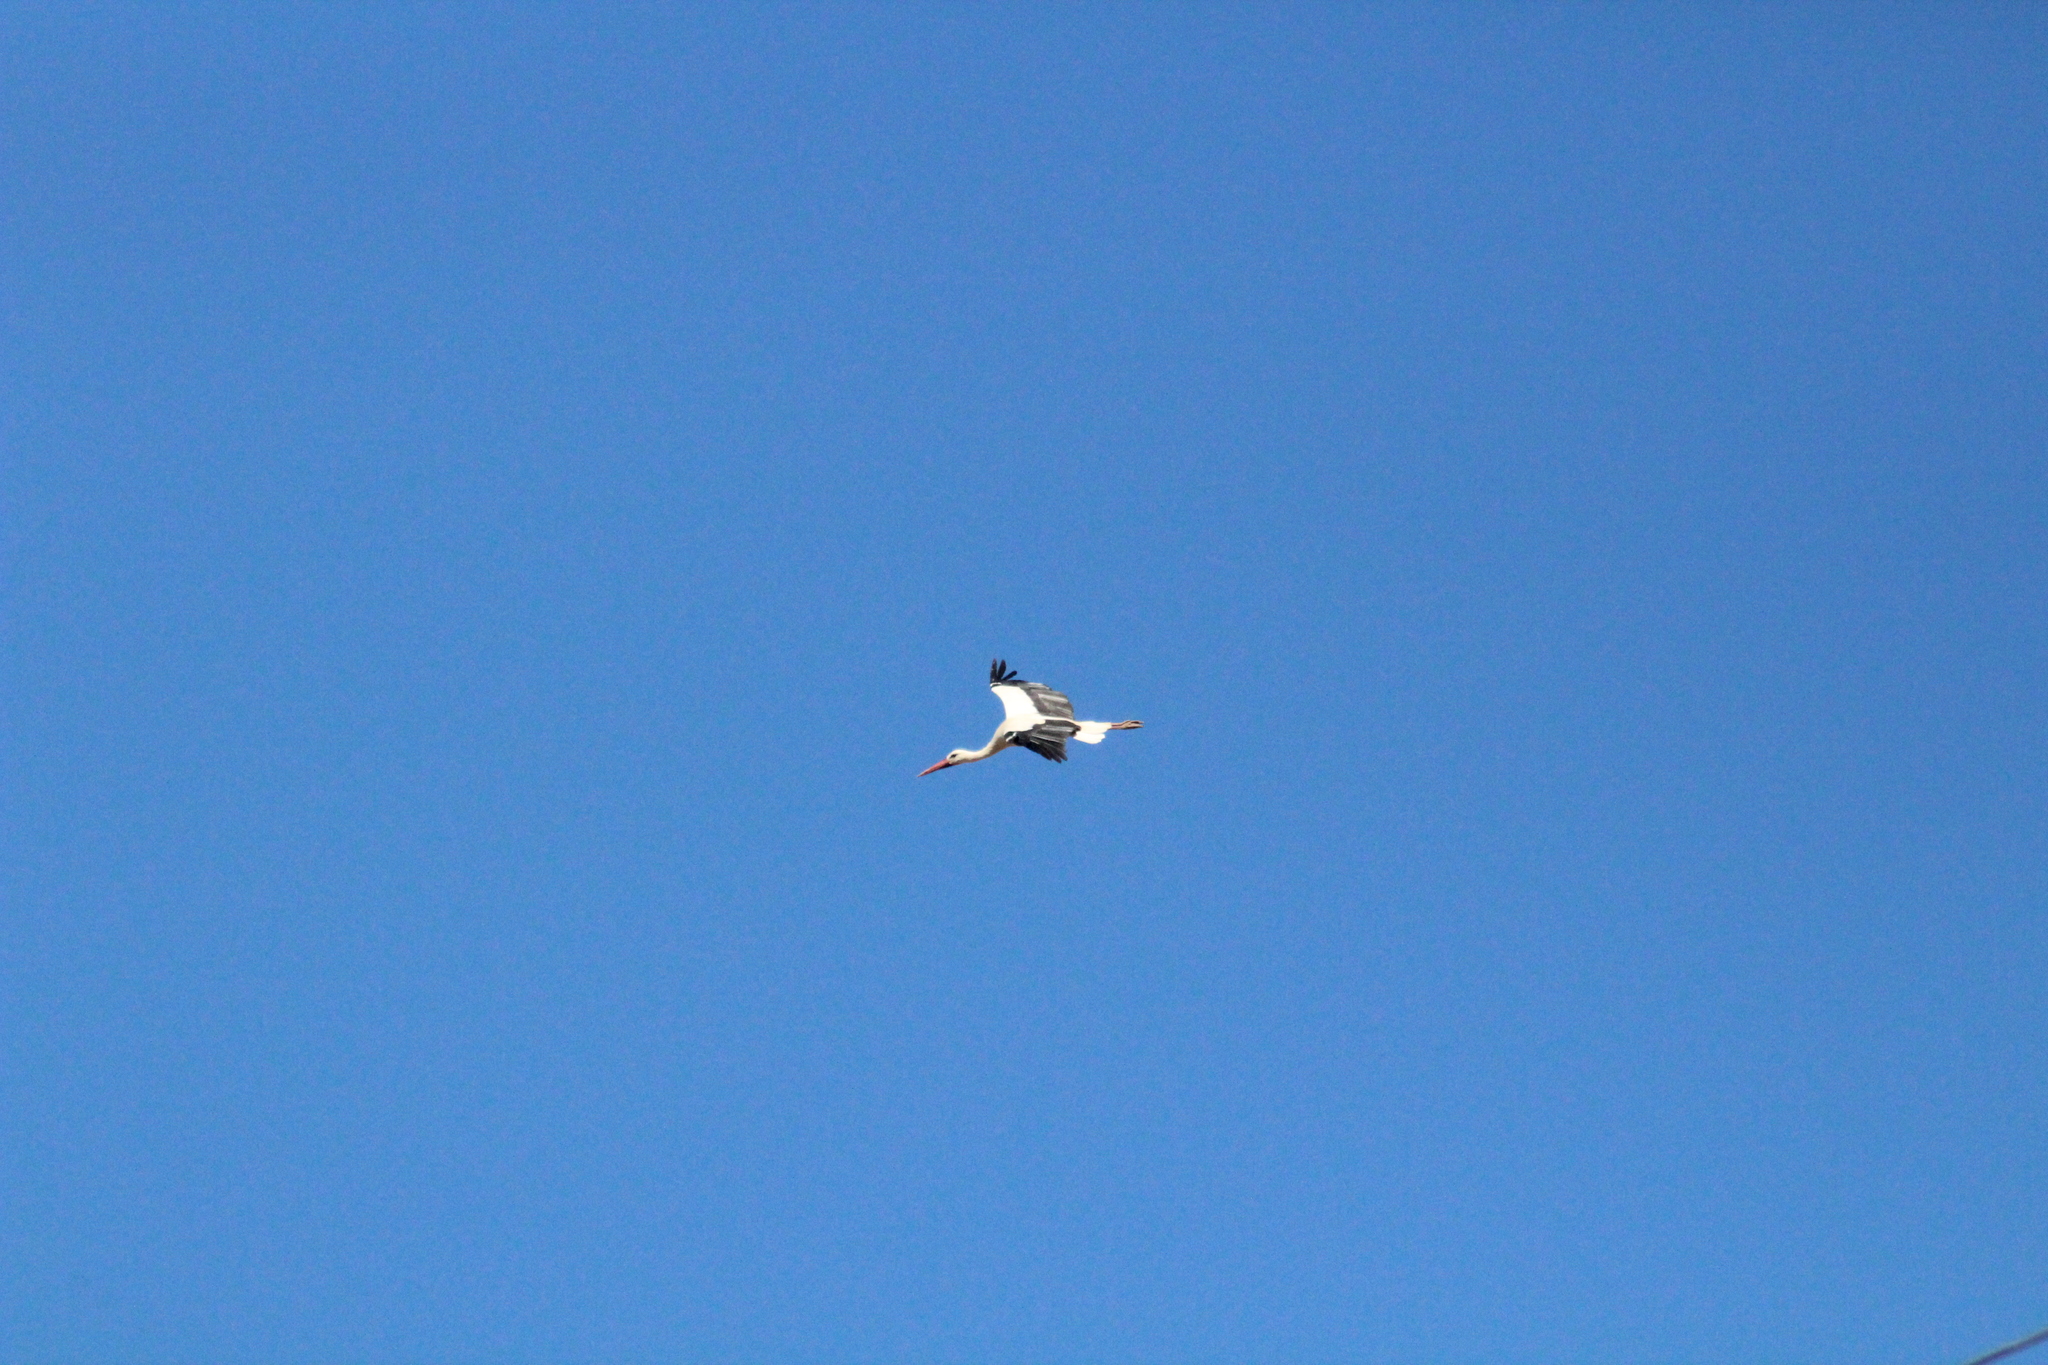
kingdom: Animalia
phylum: Chordata
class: Aves
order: Ciconiiformes
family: Ciconiidae
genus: Ciconia
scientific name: Ciconia ciconia
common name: White stork
